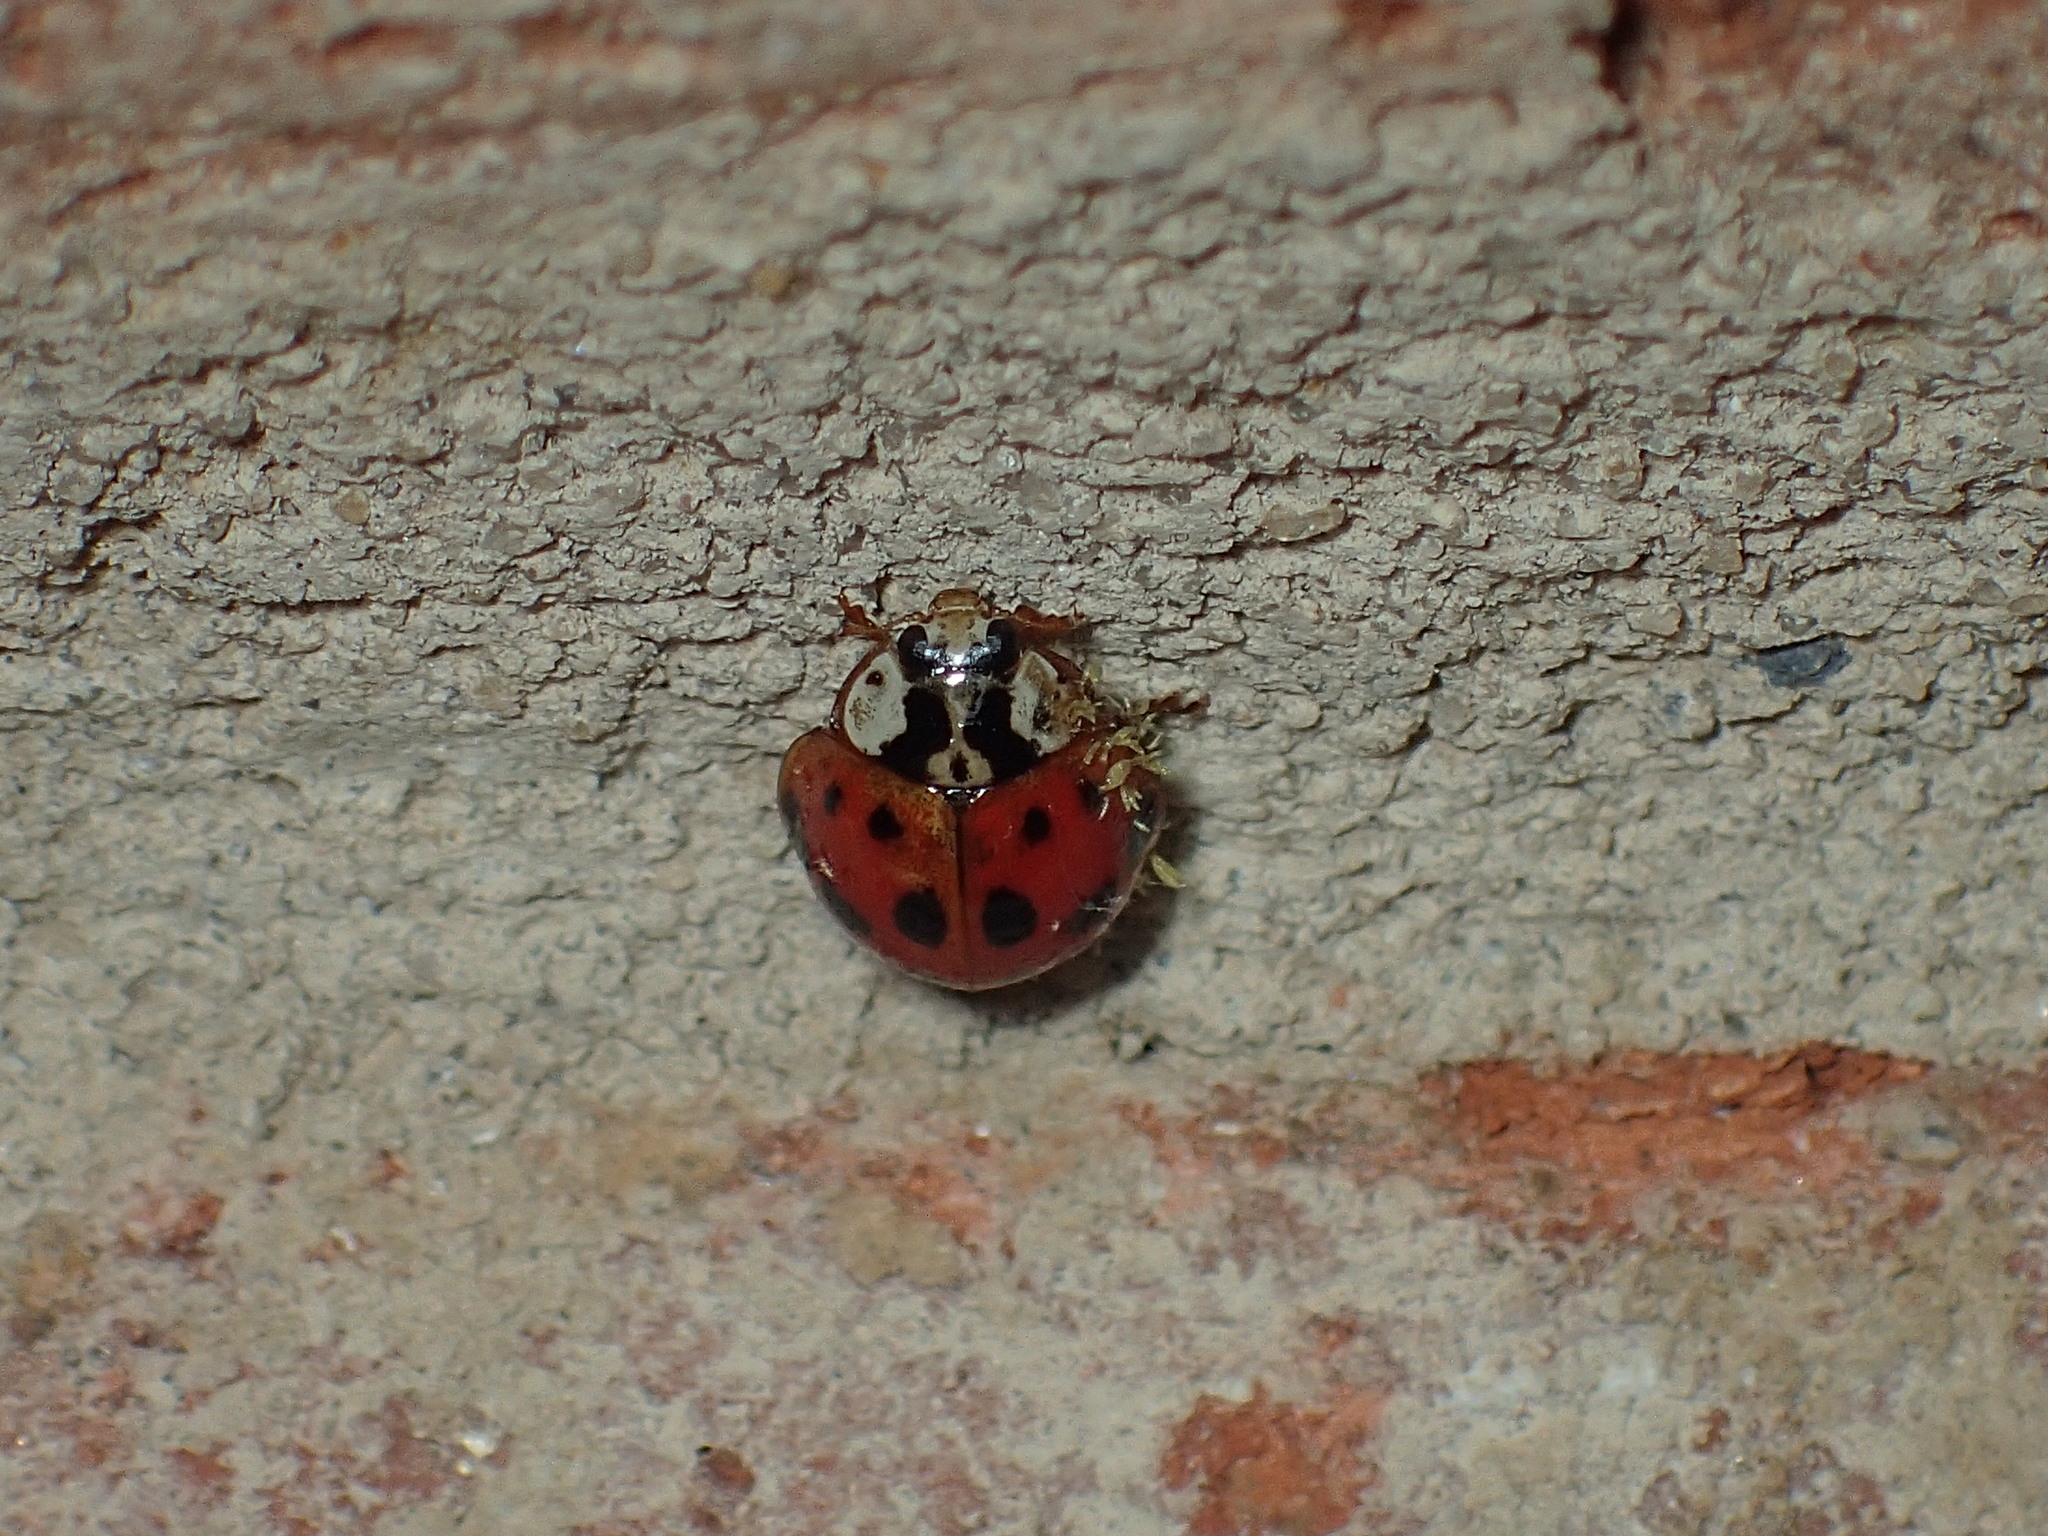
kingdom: Animalia
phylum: Arthropoda
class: Insecta
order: Coleoptera
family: Coccinellidae
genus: Harmonia
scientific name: Harmonia axyridis
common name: Harlequin ladybird
